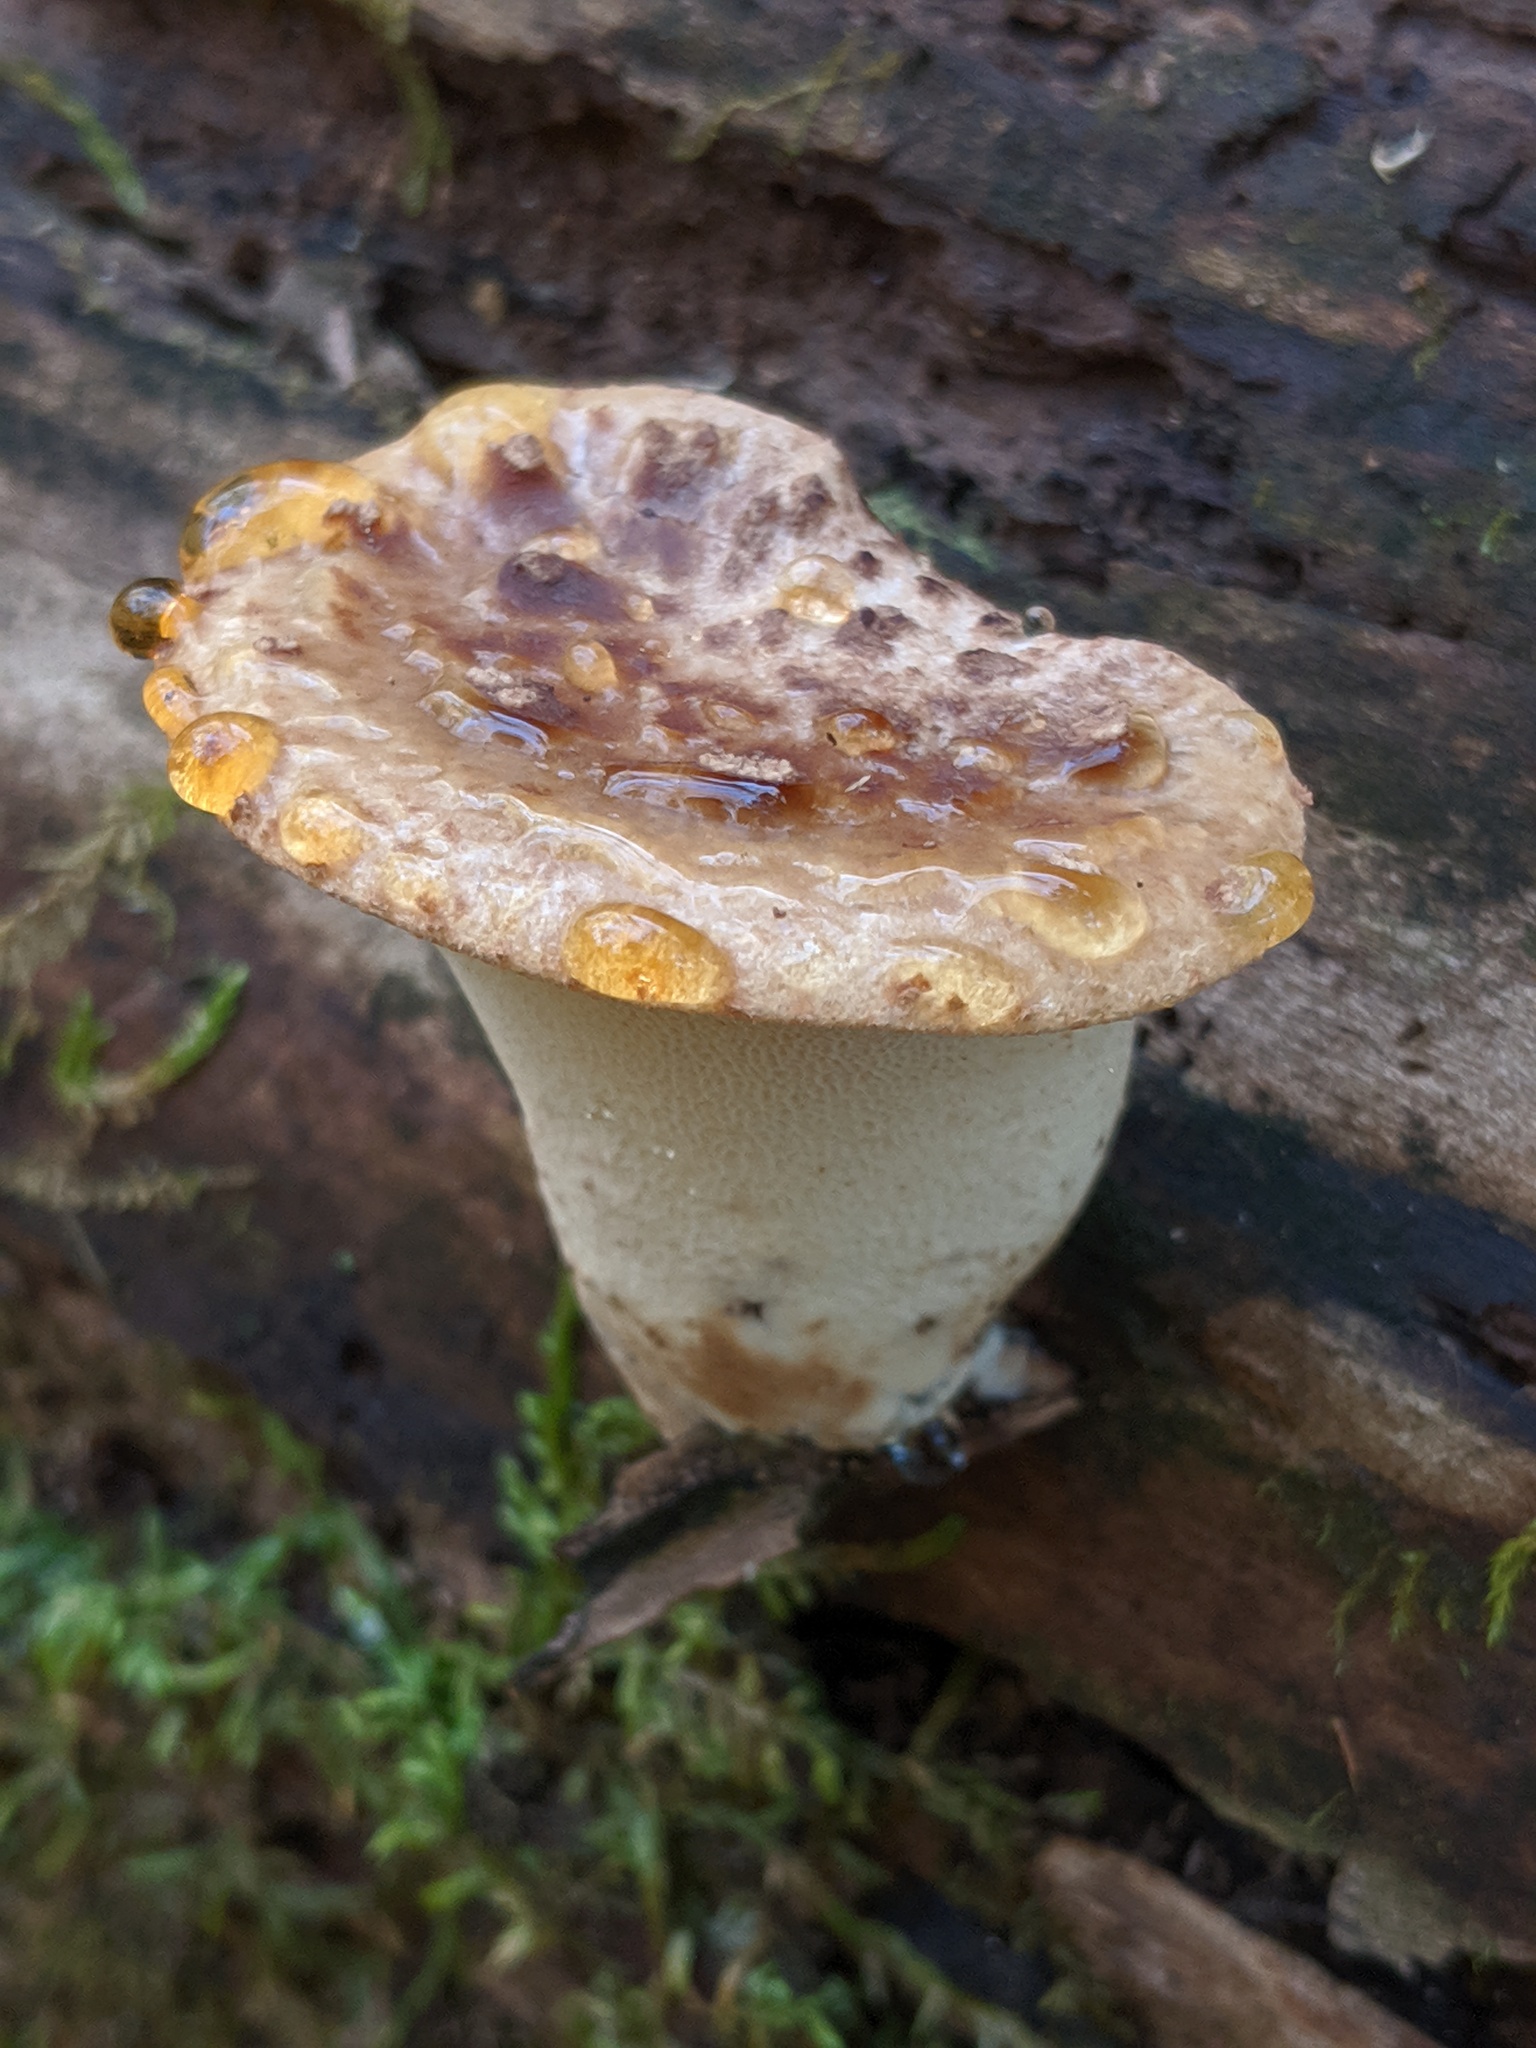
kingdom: Fungi
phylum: Basidiomycota
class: Agaricomycetes
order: Polyporales
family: Polyporaceae
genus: Cerioporus
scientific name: Cerioporus squamosus
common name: Dryad's saddle
